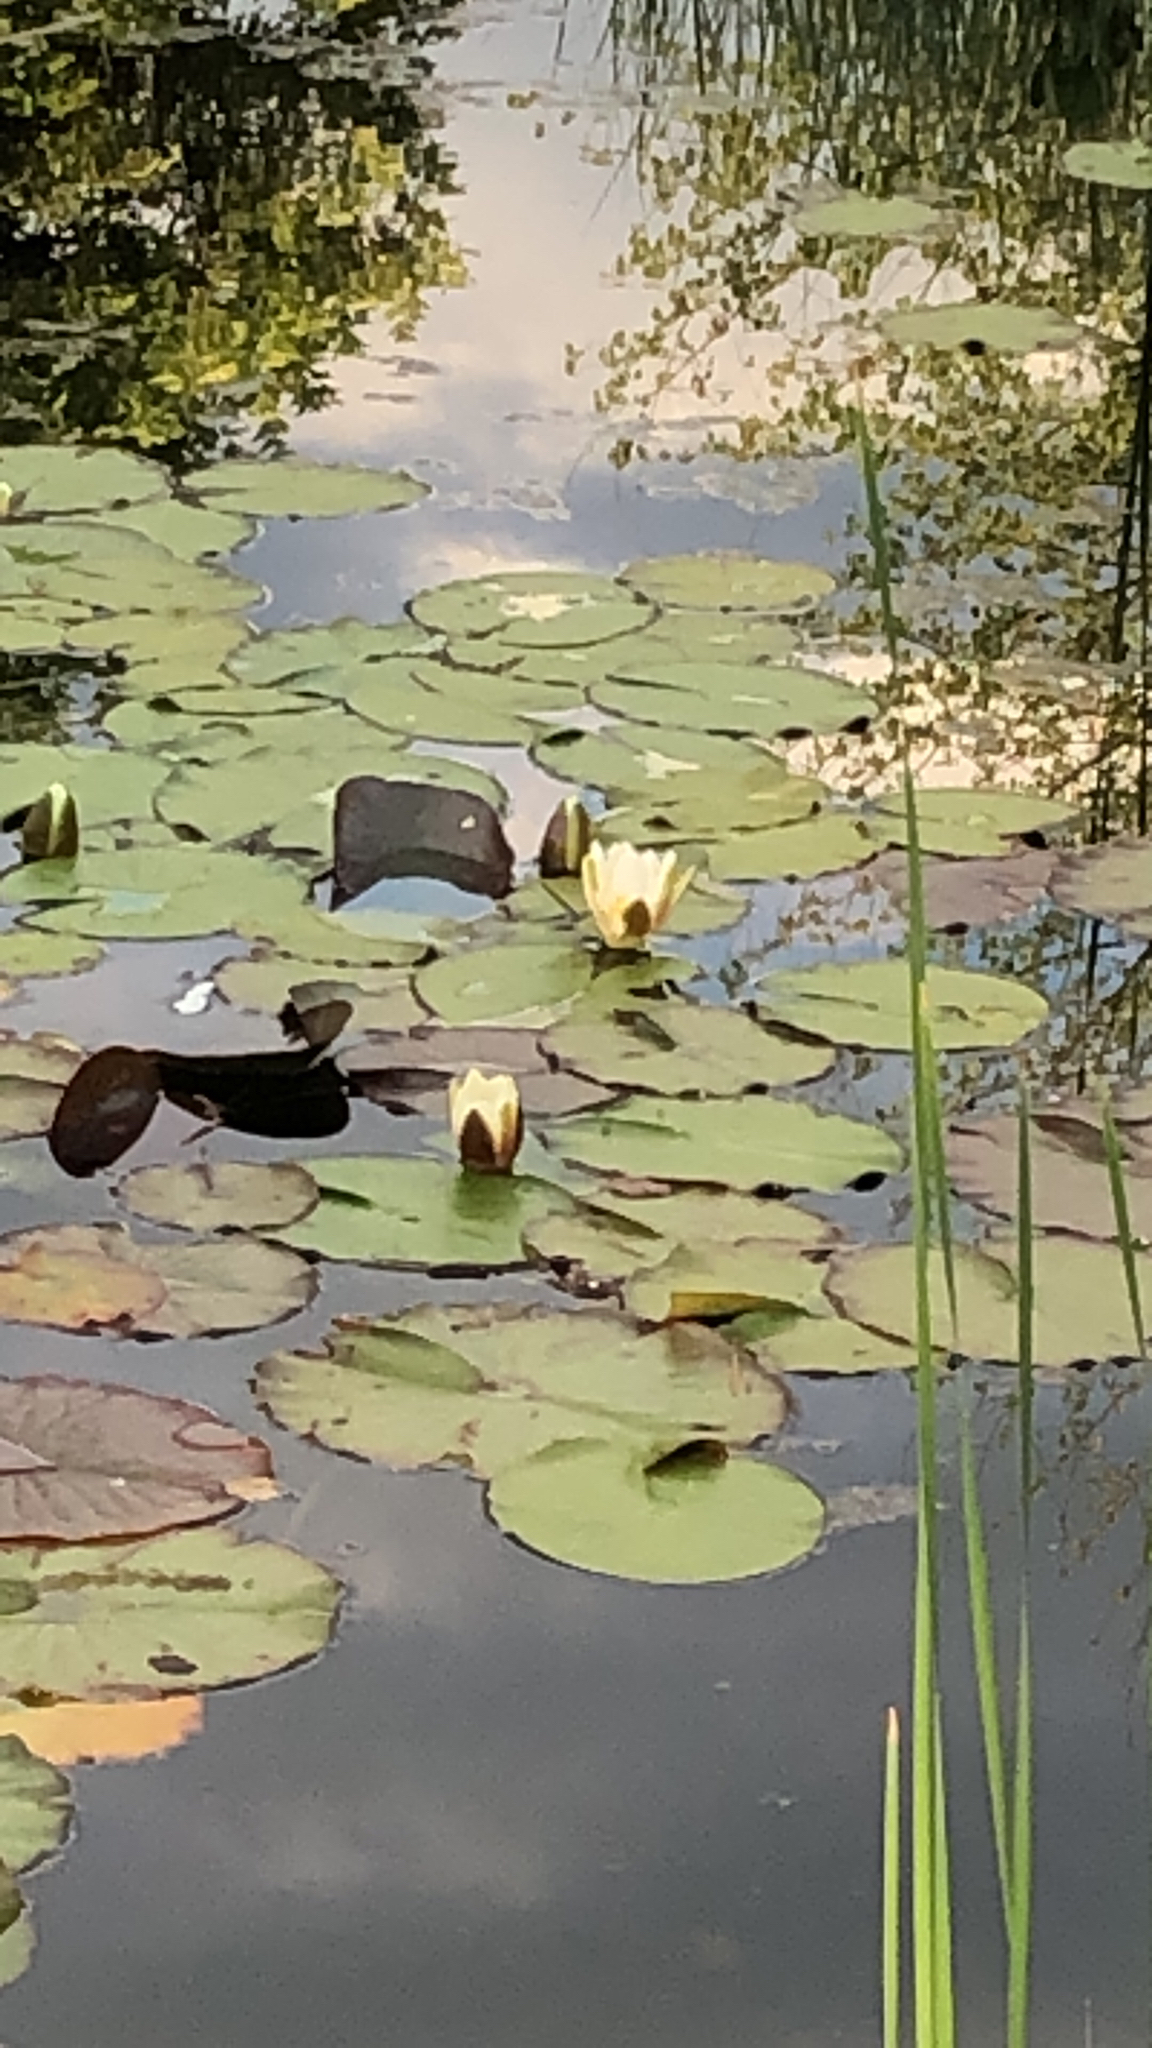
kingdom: Plantae
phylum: Tracheophyta
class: Magnoliopsida
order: Nymphaeales
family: Nymphaeaceae
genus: Nymphaea
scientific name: Nymphaea alba
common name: White water-lily
